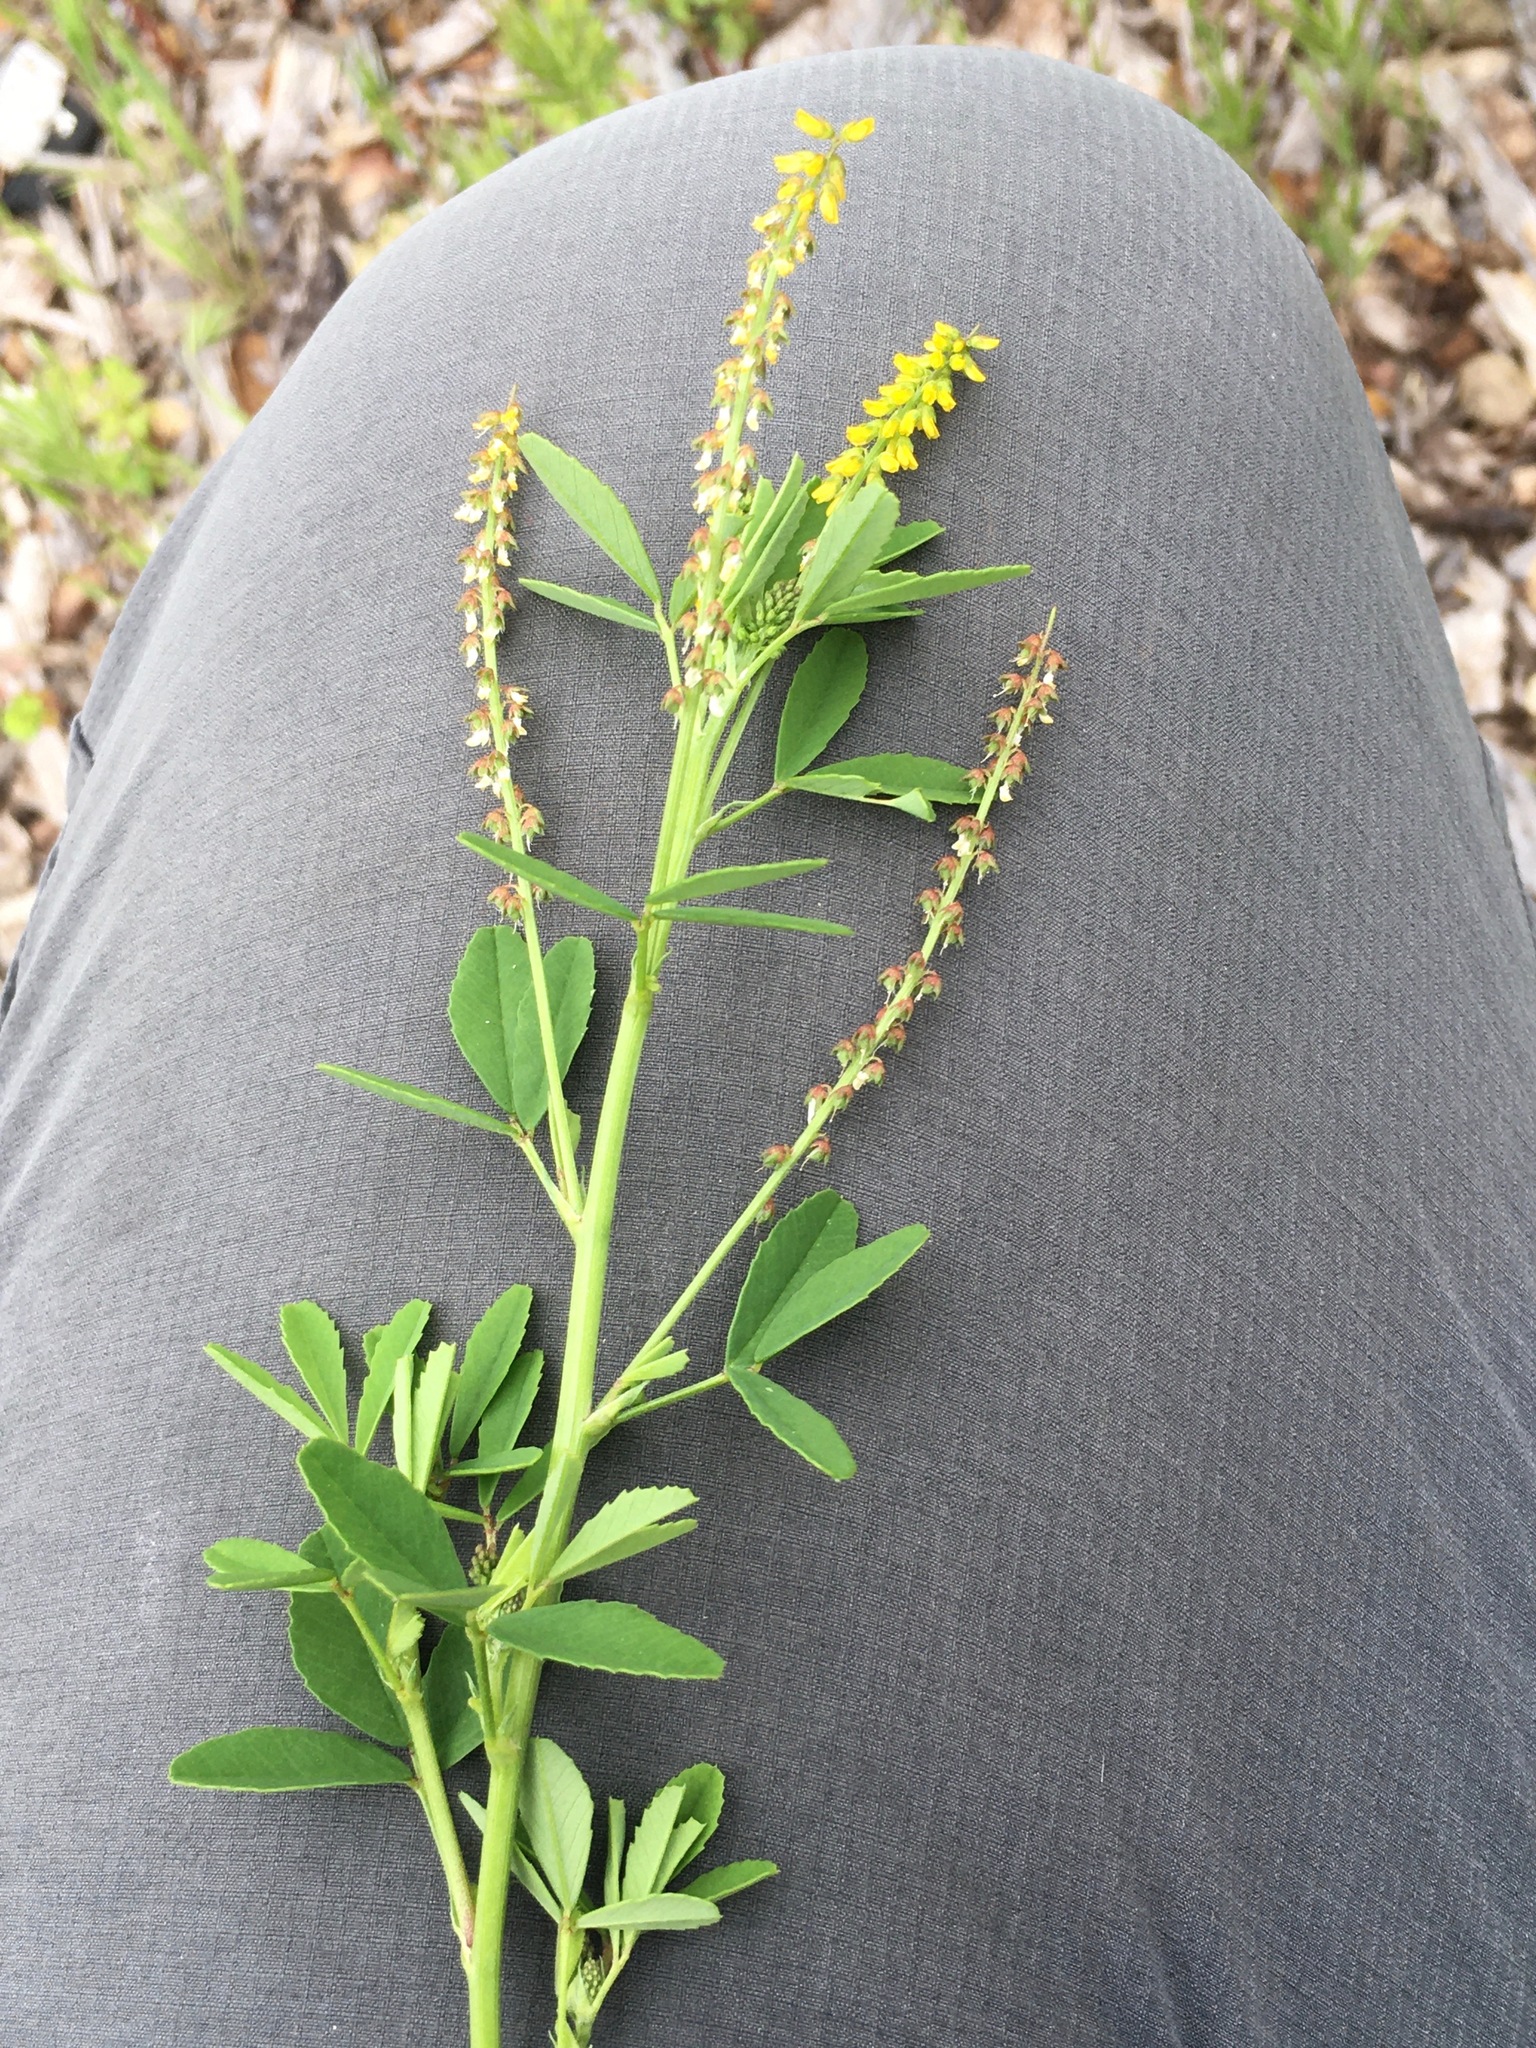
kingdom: Plantae
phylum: Tracheophyta
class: Magnoliopsida
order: Fabales
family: Fabaceae
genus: Melilotus
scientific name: Melilotus indicus
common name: Small melilot
